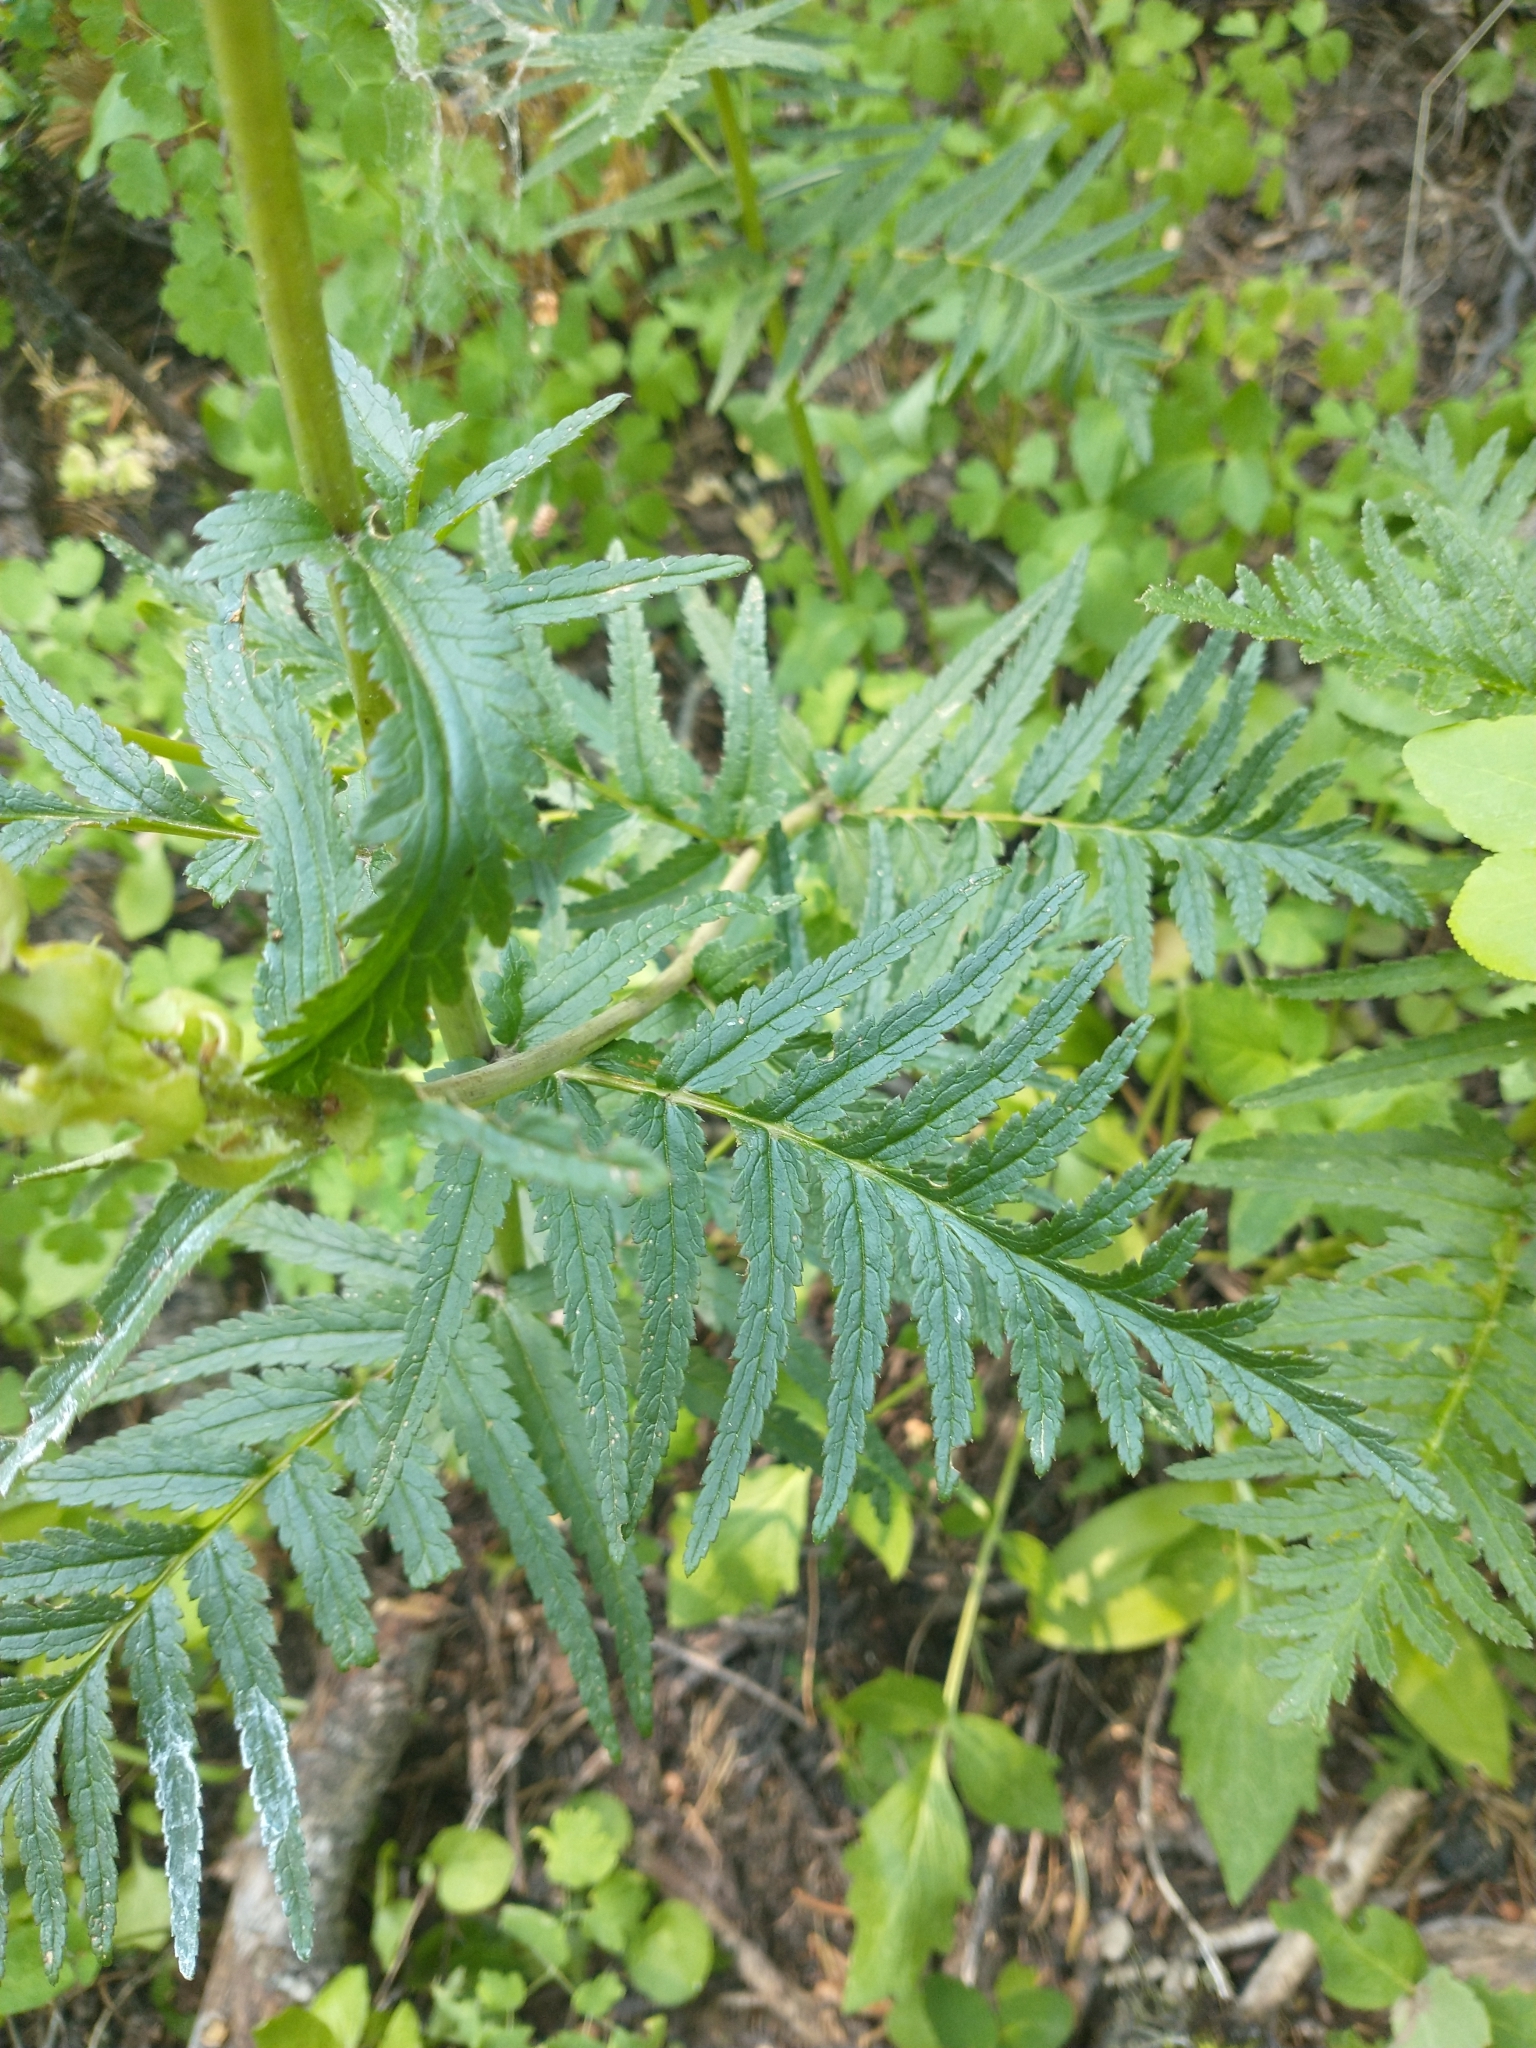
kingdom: Plantae
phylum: Tracheophyta
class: Magnoliopsida
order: Lamiales
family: Orobanchaceae
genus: Pedicularis
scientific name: Pedicularis bracteosa
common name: Bracted lousewort
